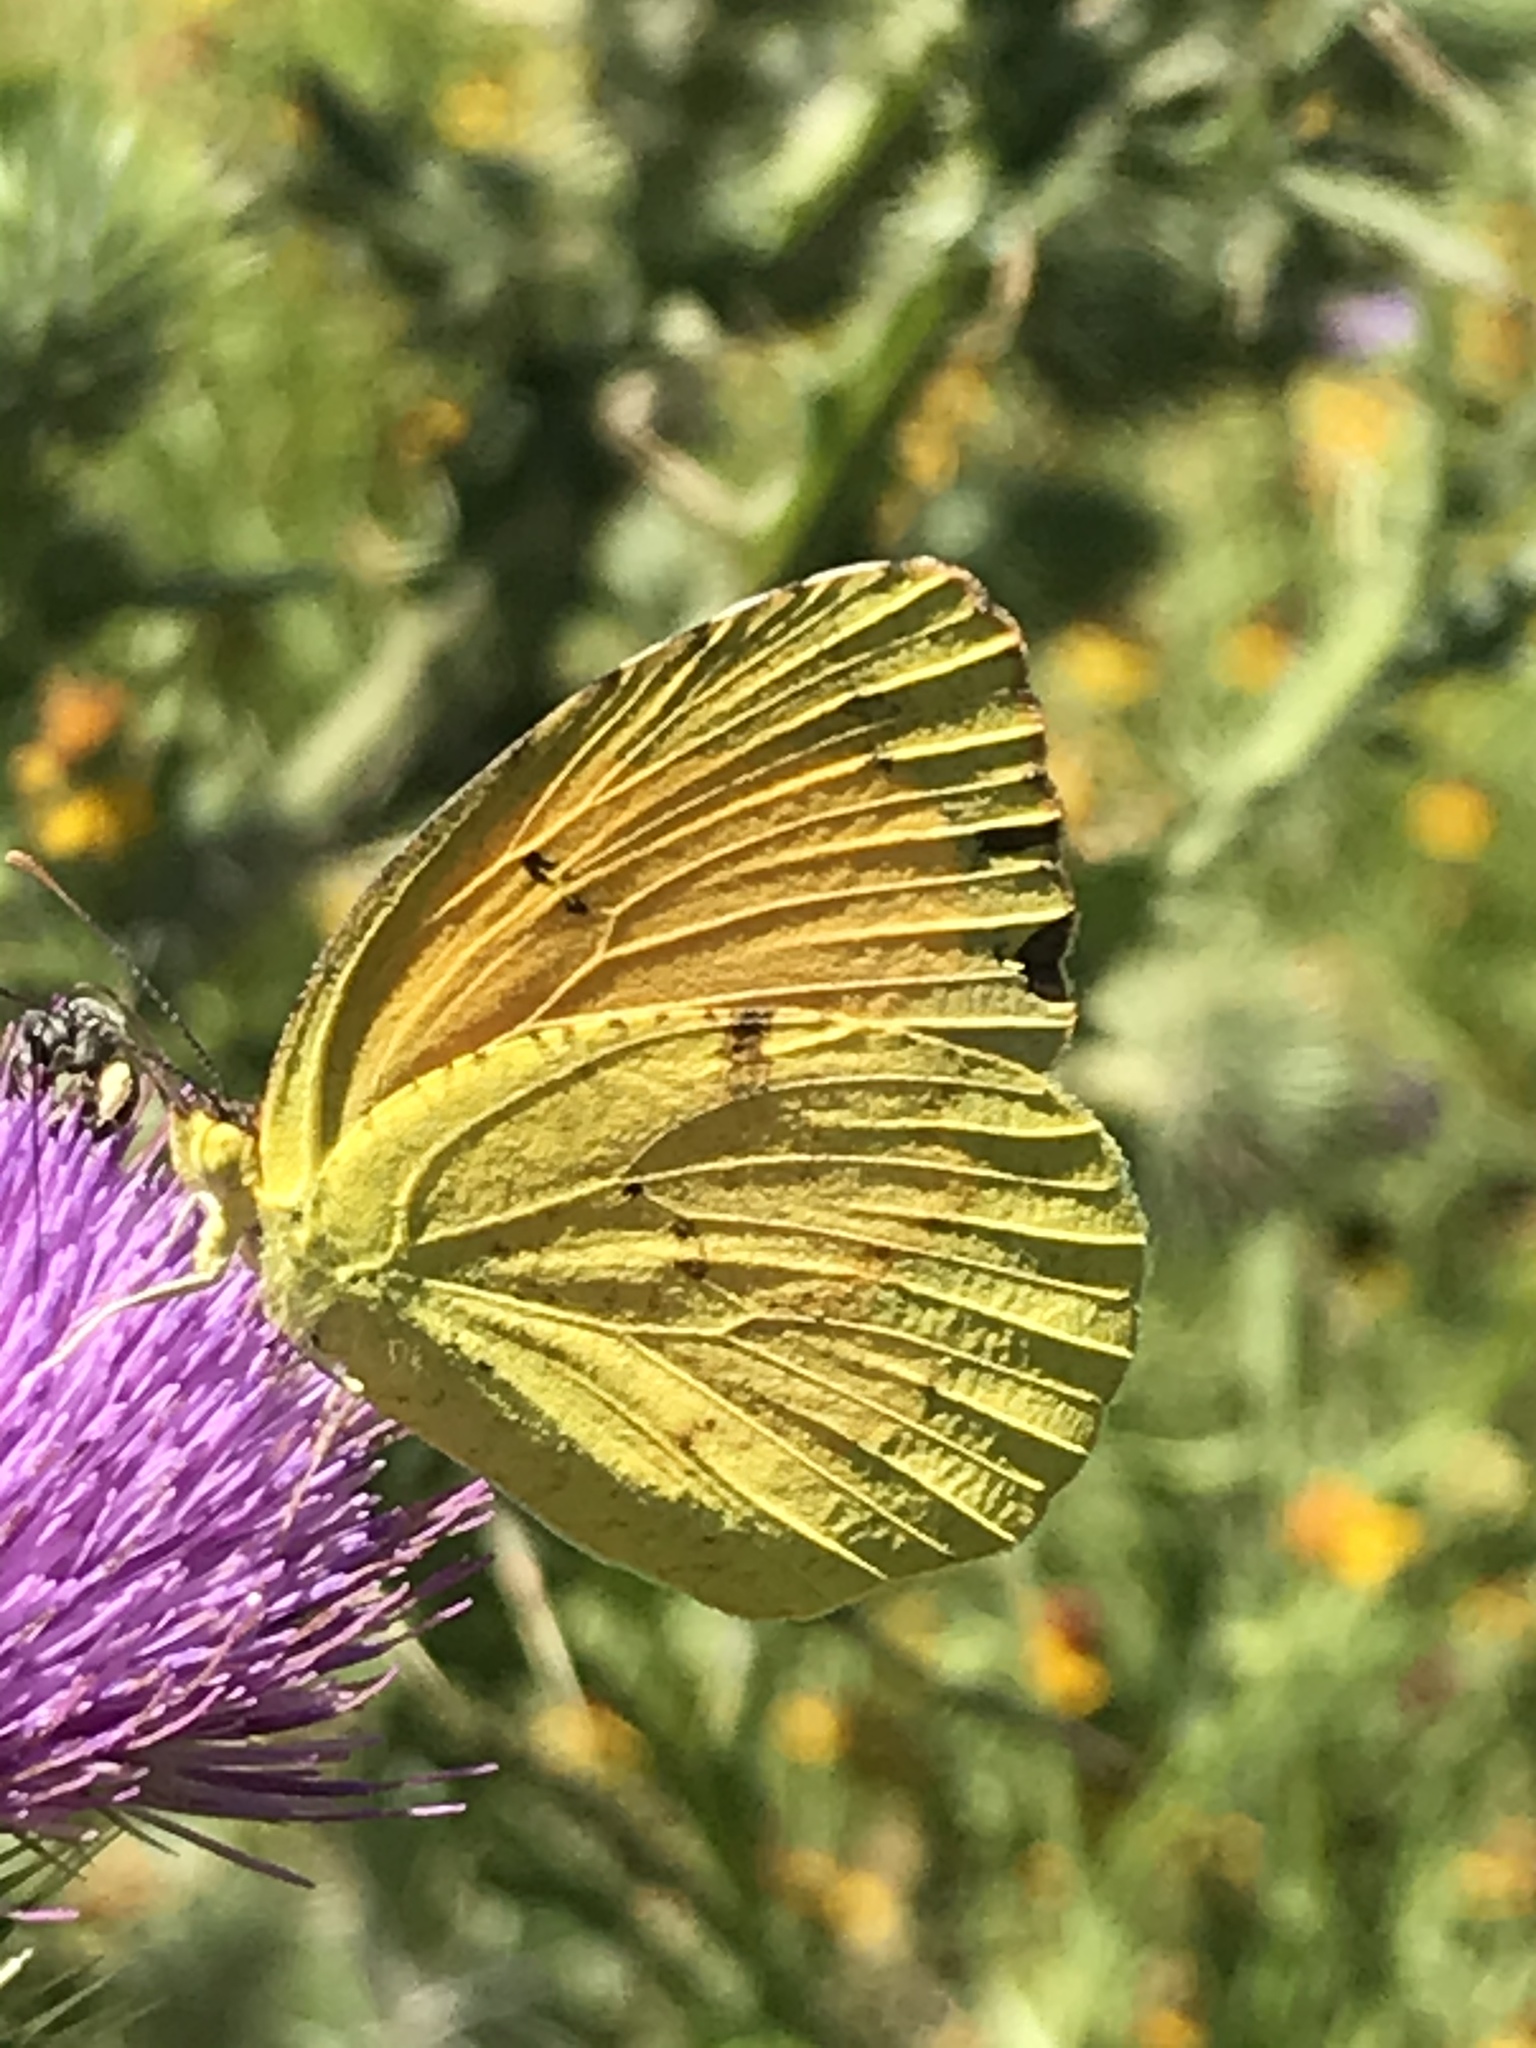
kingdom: Animalia
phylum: Arthropoda
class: Insecta
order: Lepidoptera
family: Pieridae
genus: Abaeis
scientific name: Abaeis nicippe
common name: Sleepy orange
